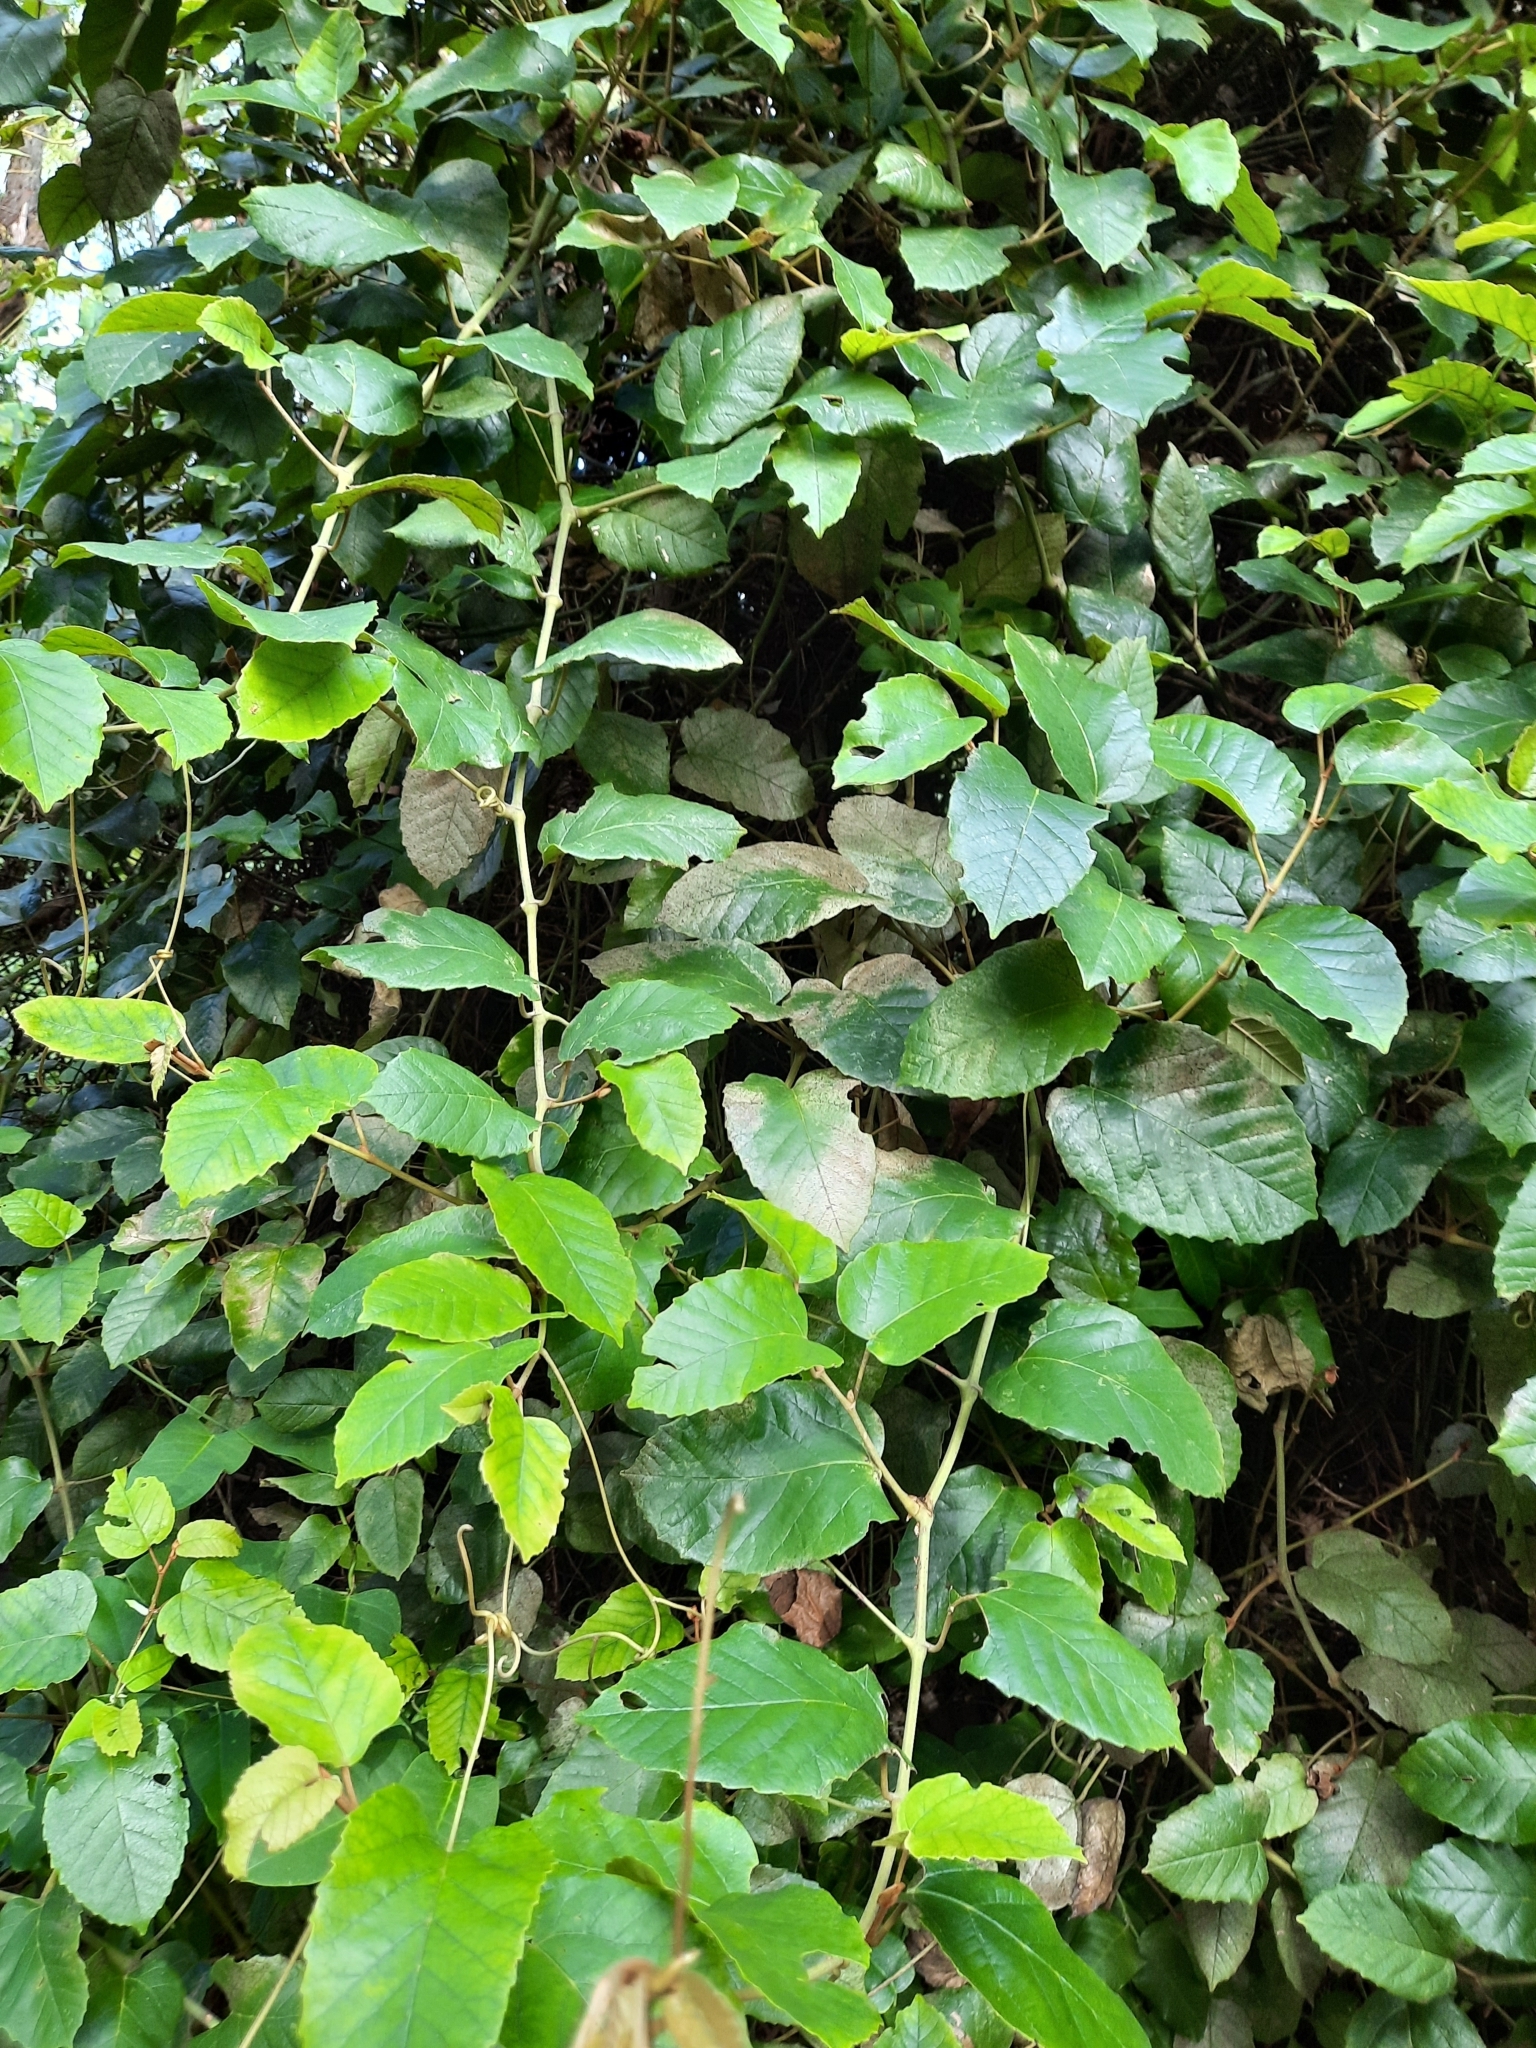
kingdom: Plantae
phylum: Tracheophyta
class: Magnoliopsida
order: Vitales
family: Vitaceae
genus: Cissus
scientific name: Cissus antarctica
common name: Kangaroo vine
